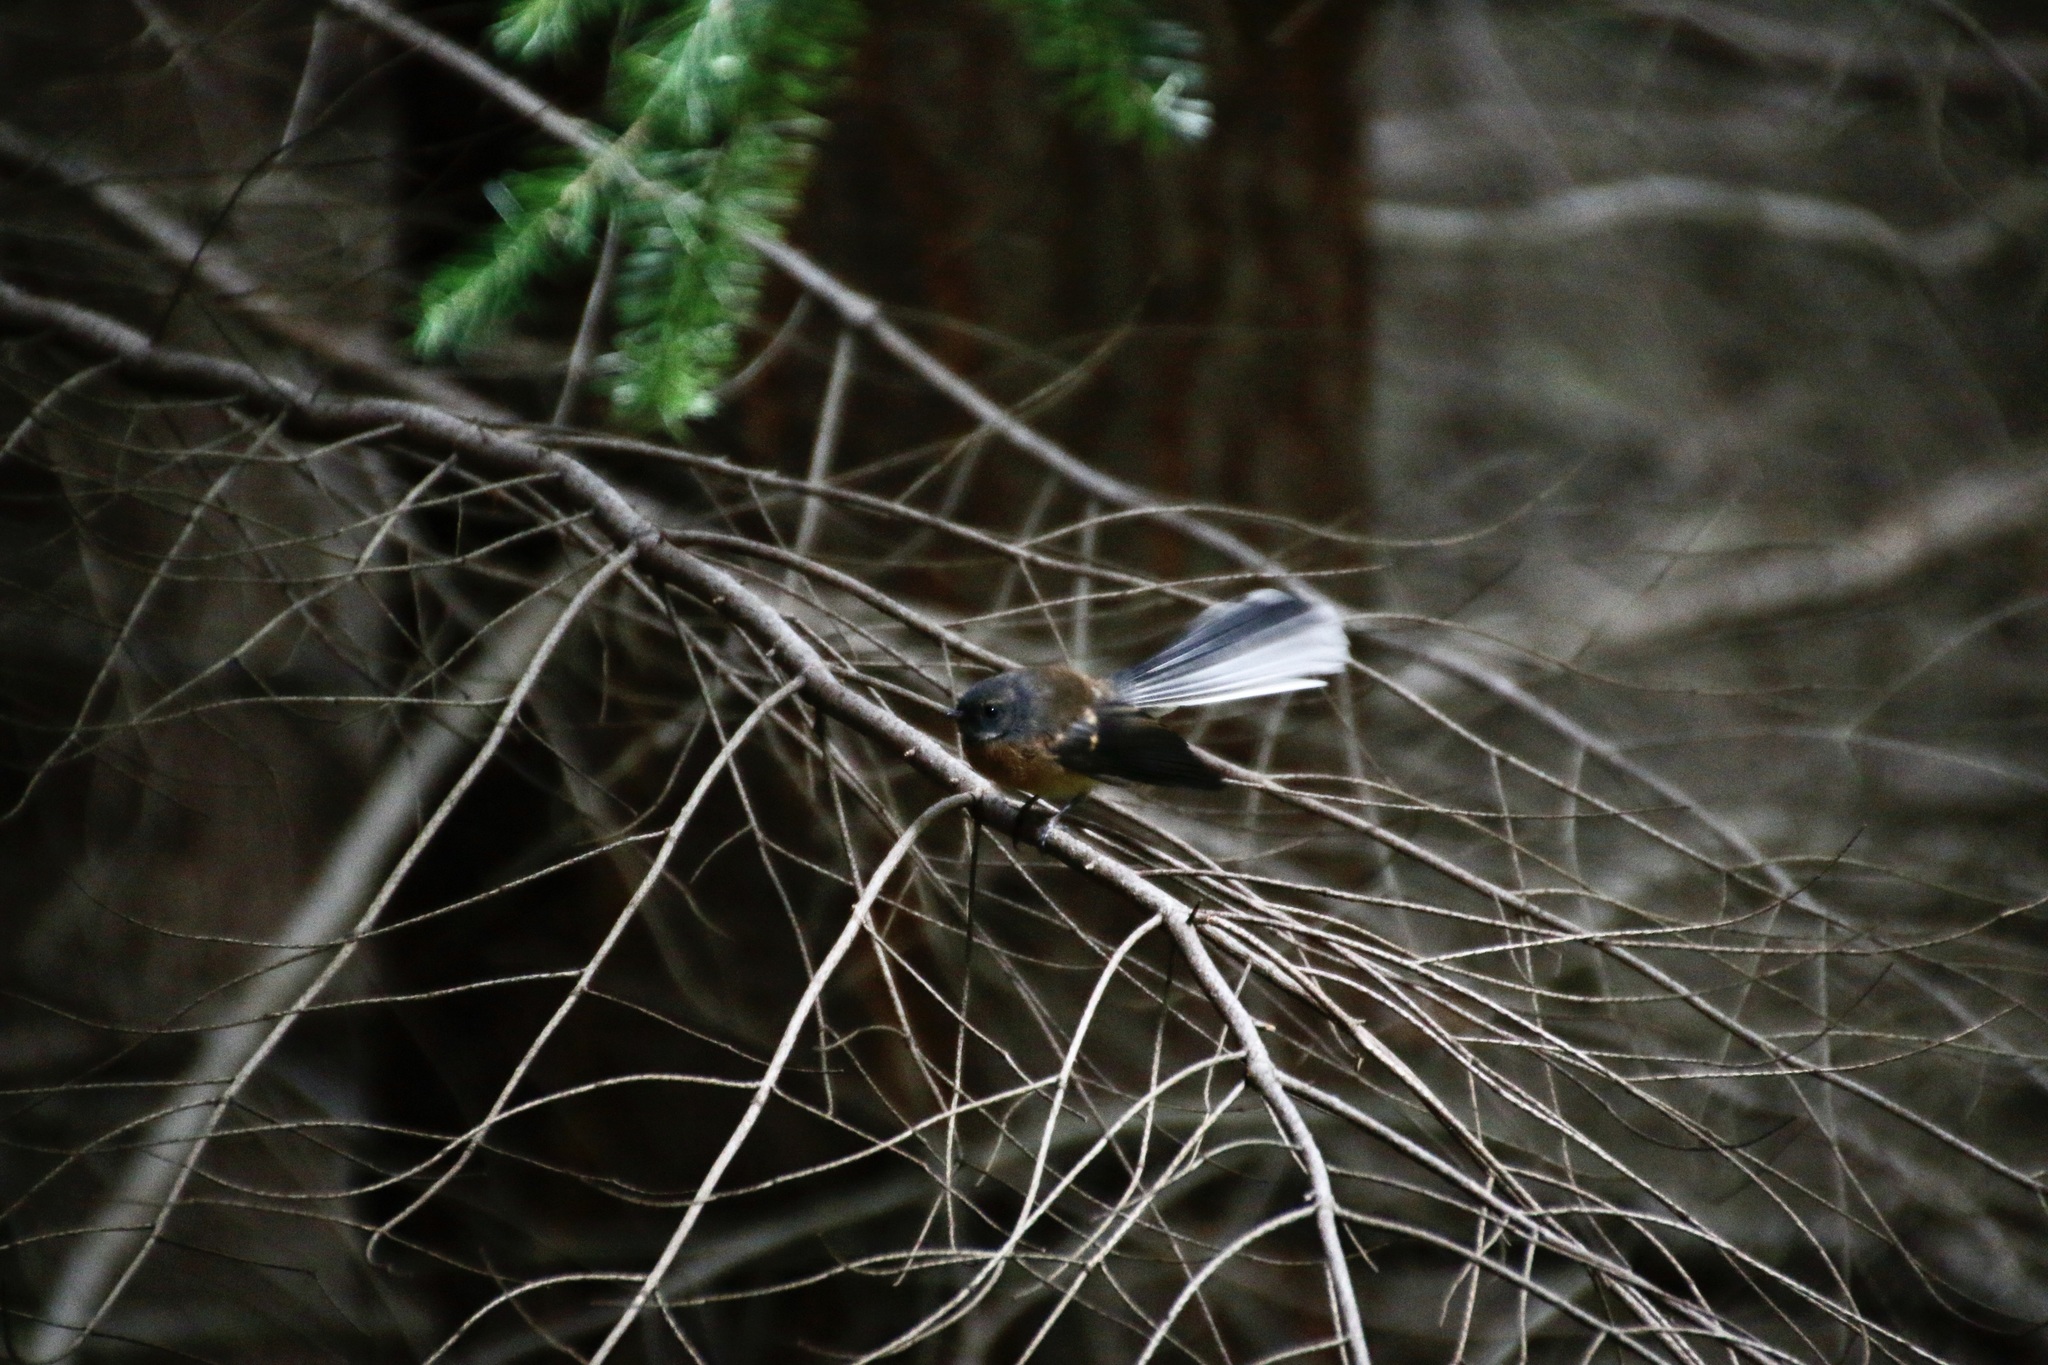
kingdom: Animalia
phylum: Chordata
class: Aves
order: Passeriformes
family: Rhipiduridae
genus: Rhipidura
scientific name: Rhipidura fuliginosa
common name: New zealand fantail
